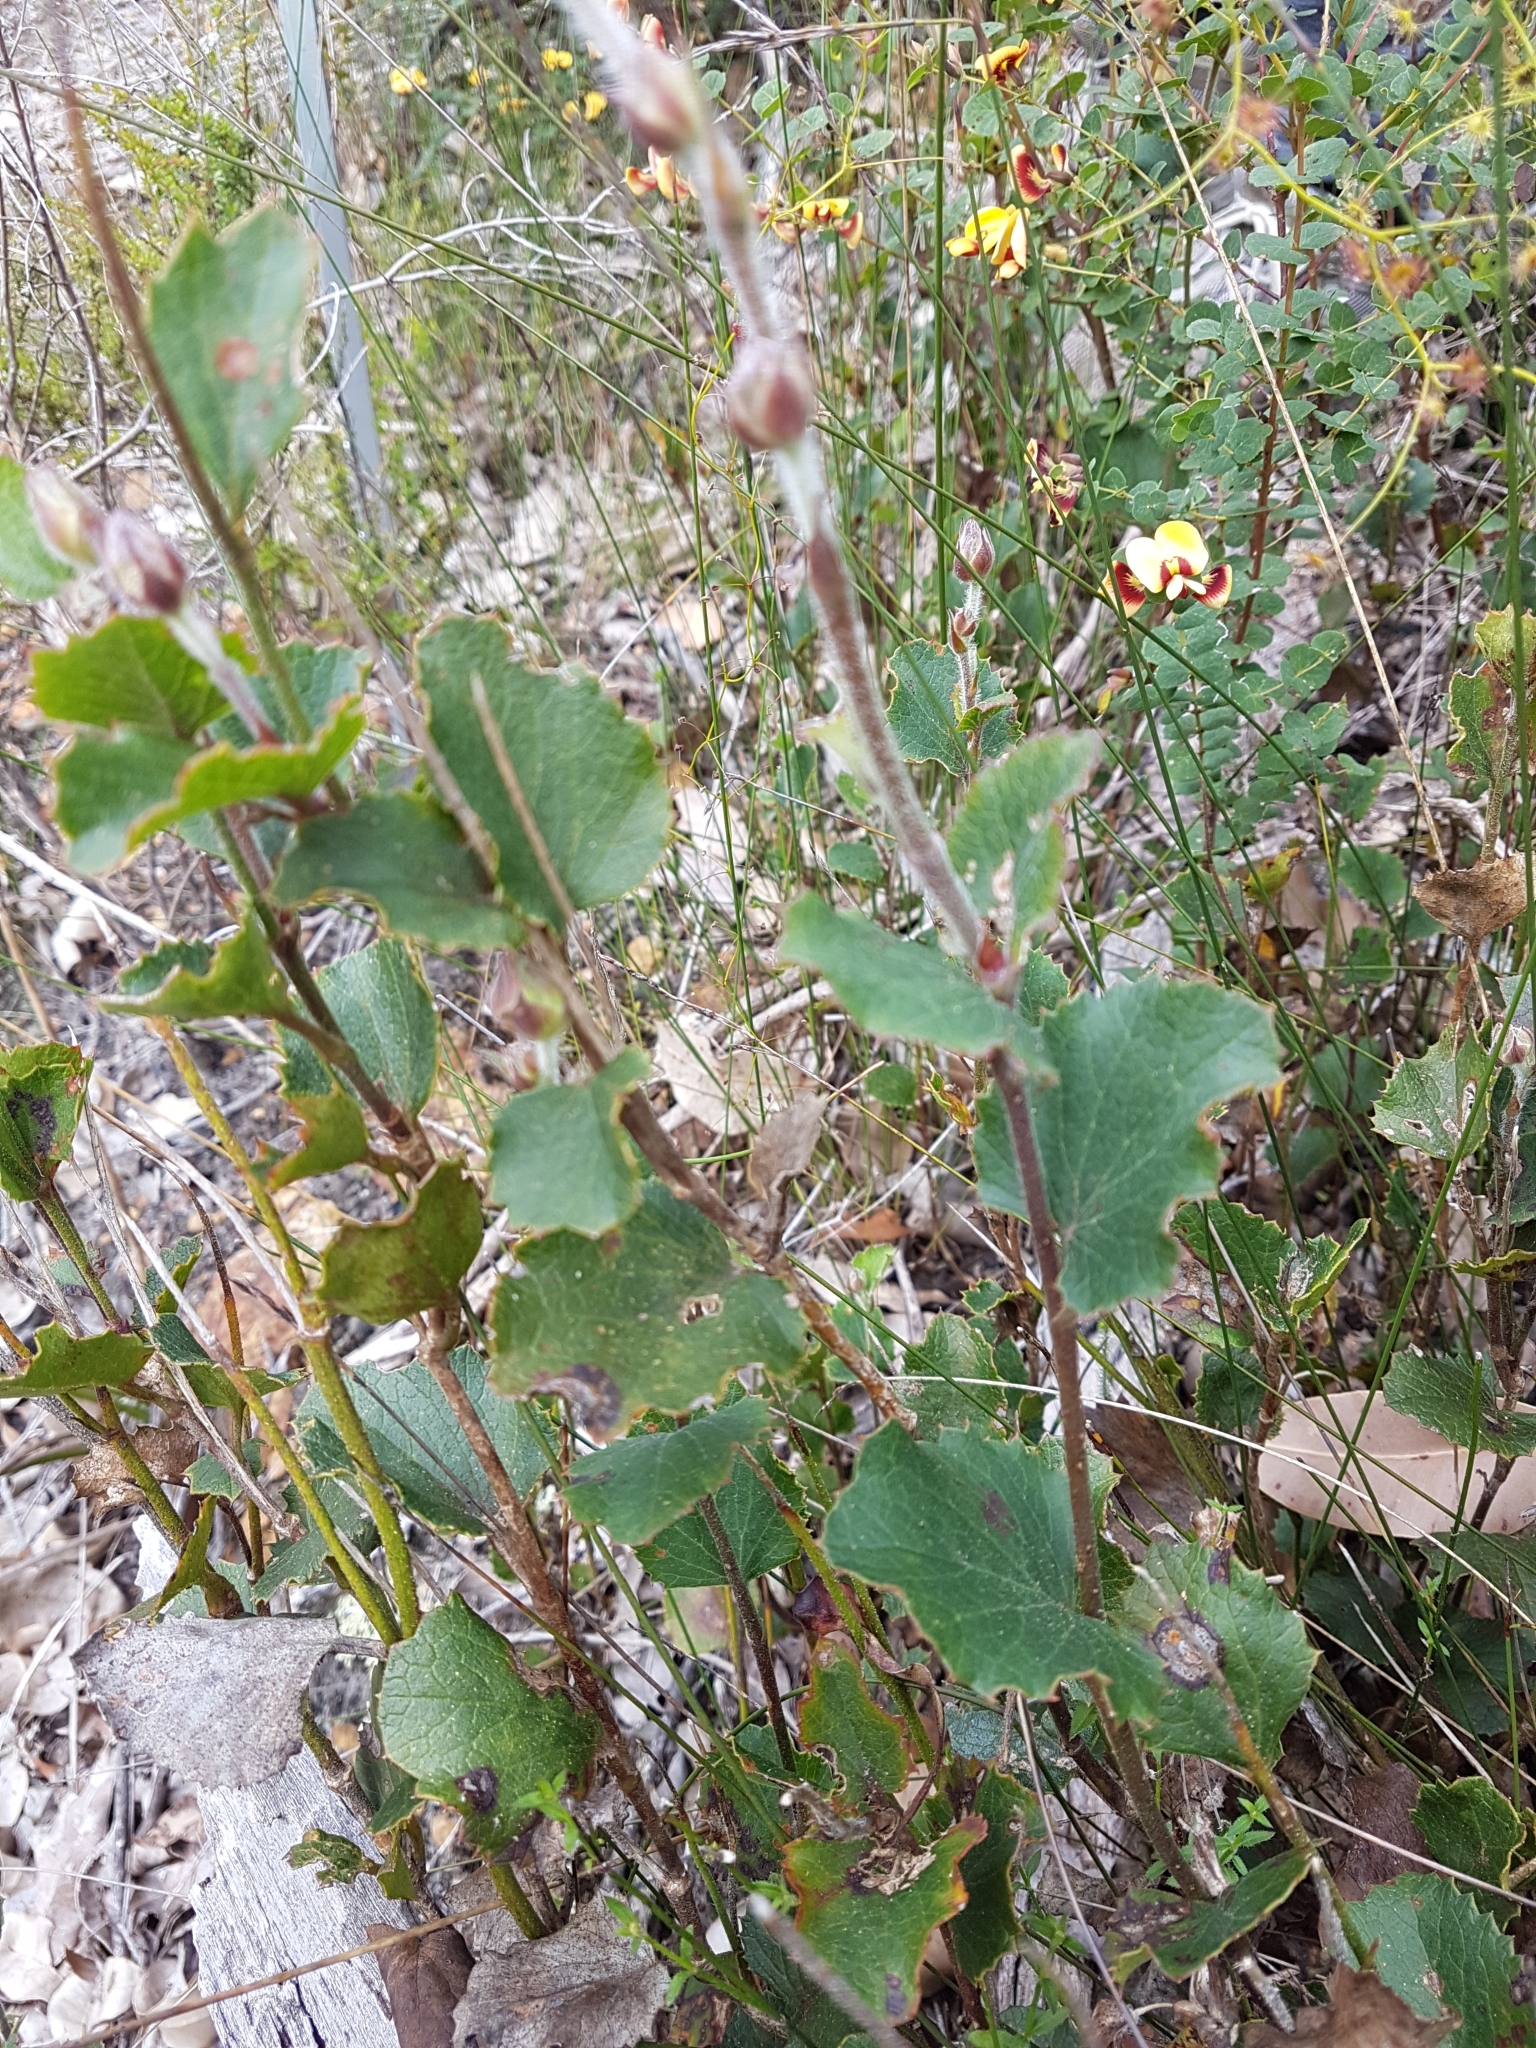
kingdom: Plantae
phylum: Tracheophyta
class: Magnoliopsida
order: Apiales
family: Apiaceae
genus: Xanthosia
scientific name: Xanthosia rotundifolia
